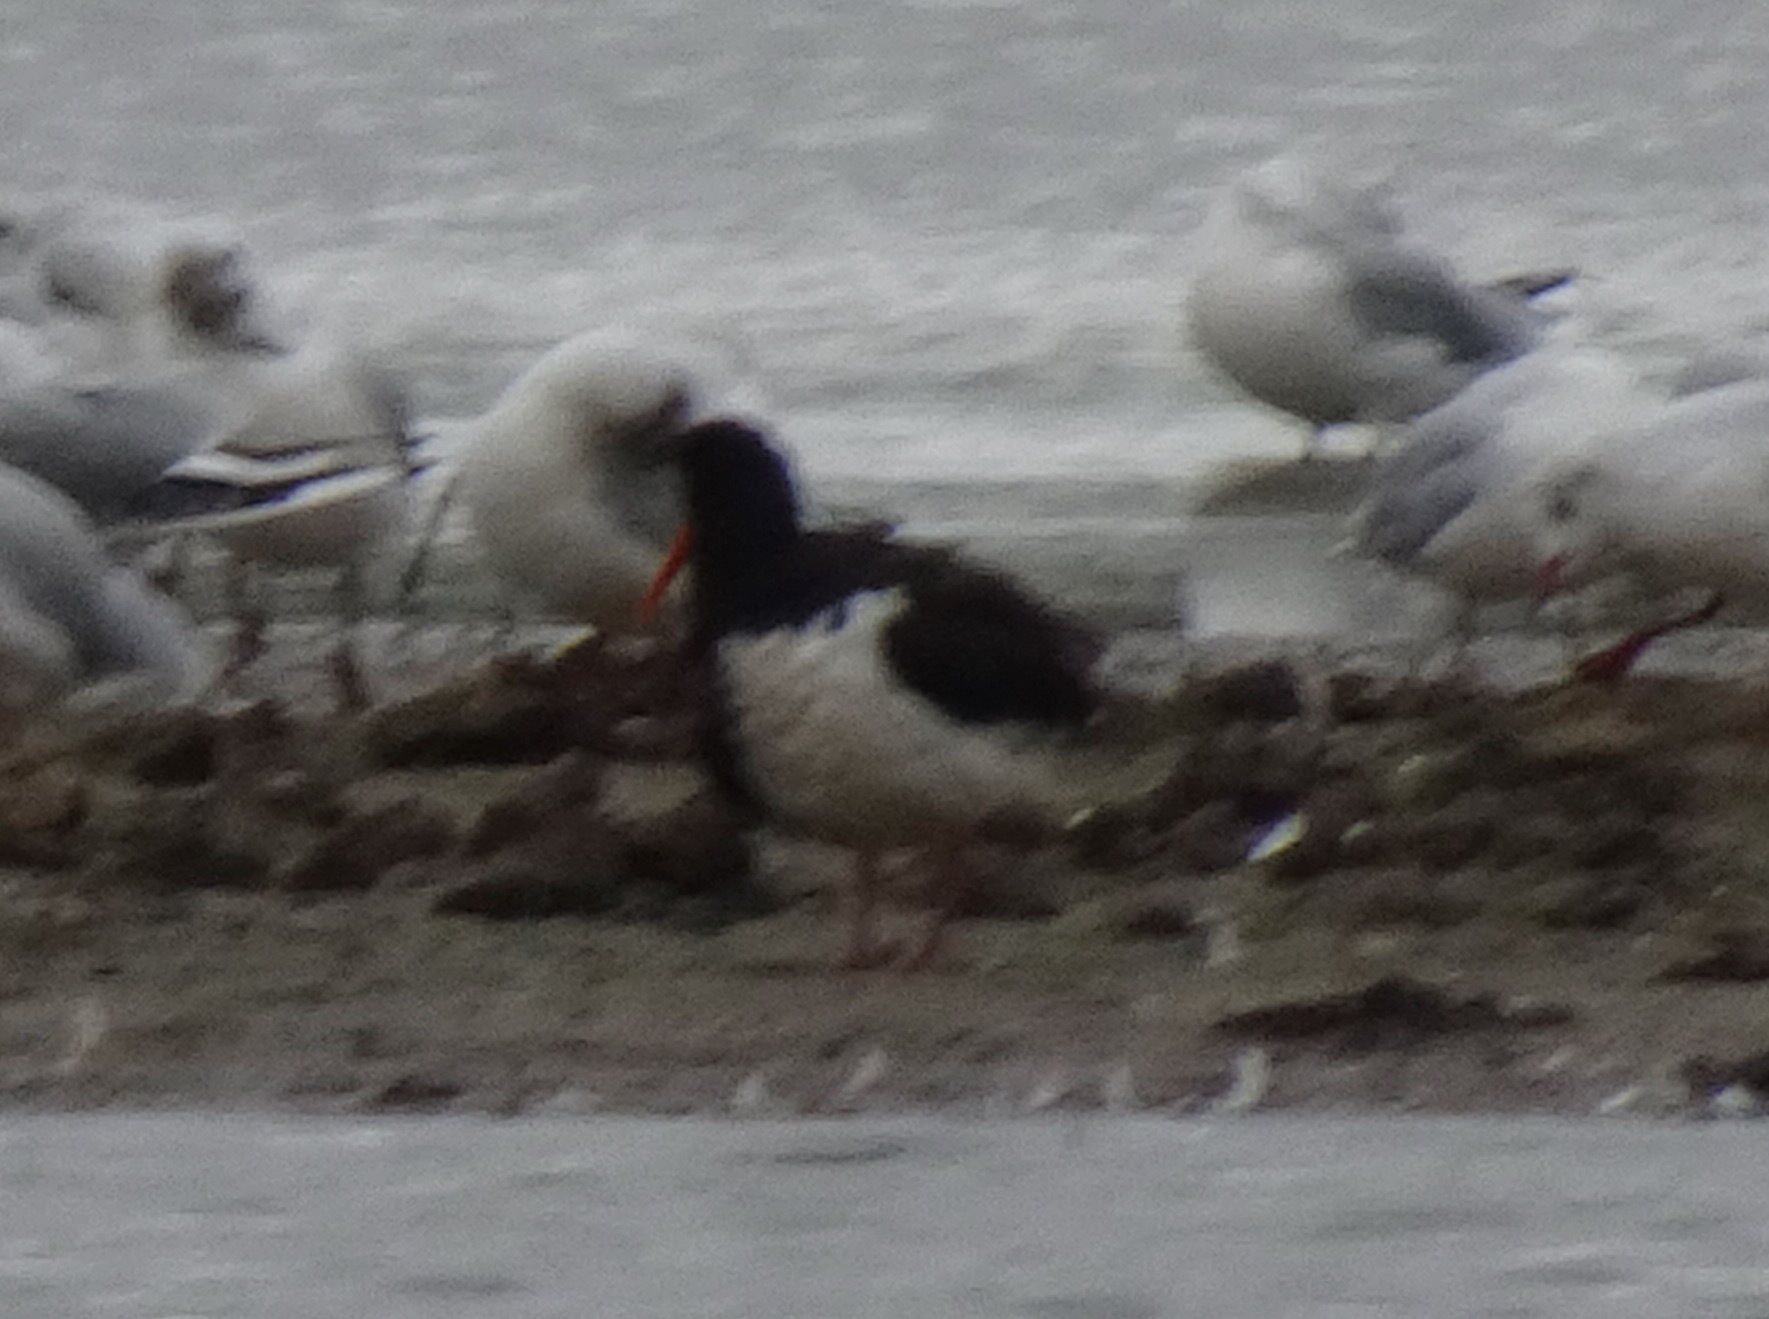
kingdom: Animalia
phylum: Chordata
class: Aves
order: Charadriiformes
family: Haematopodidae
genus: Haematopus
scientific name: Haematopus ostralegus
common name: Eurasian oystercatcher
